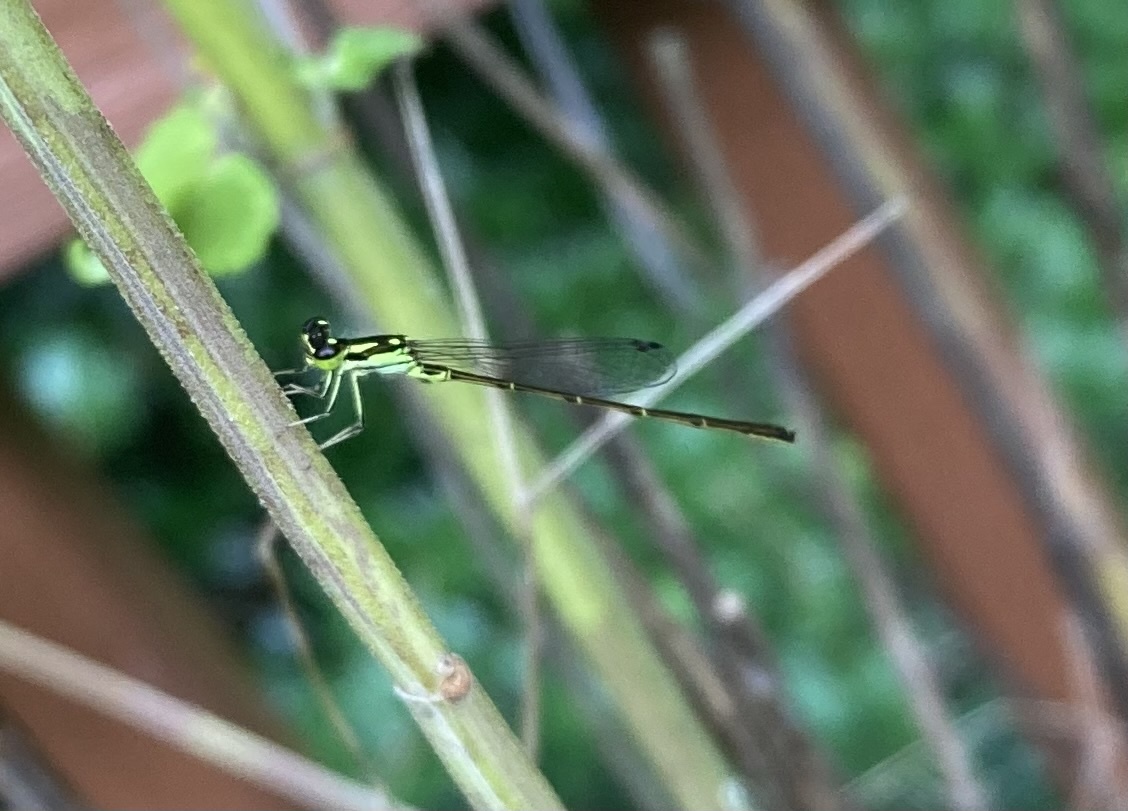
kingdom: Animalia
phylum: Arthropoda
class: Insecta
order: Odonata
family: Coenagrionidae
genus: Ischnura
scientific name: Ischnura posita
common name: Fragile forktail
